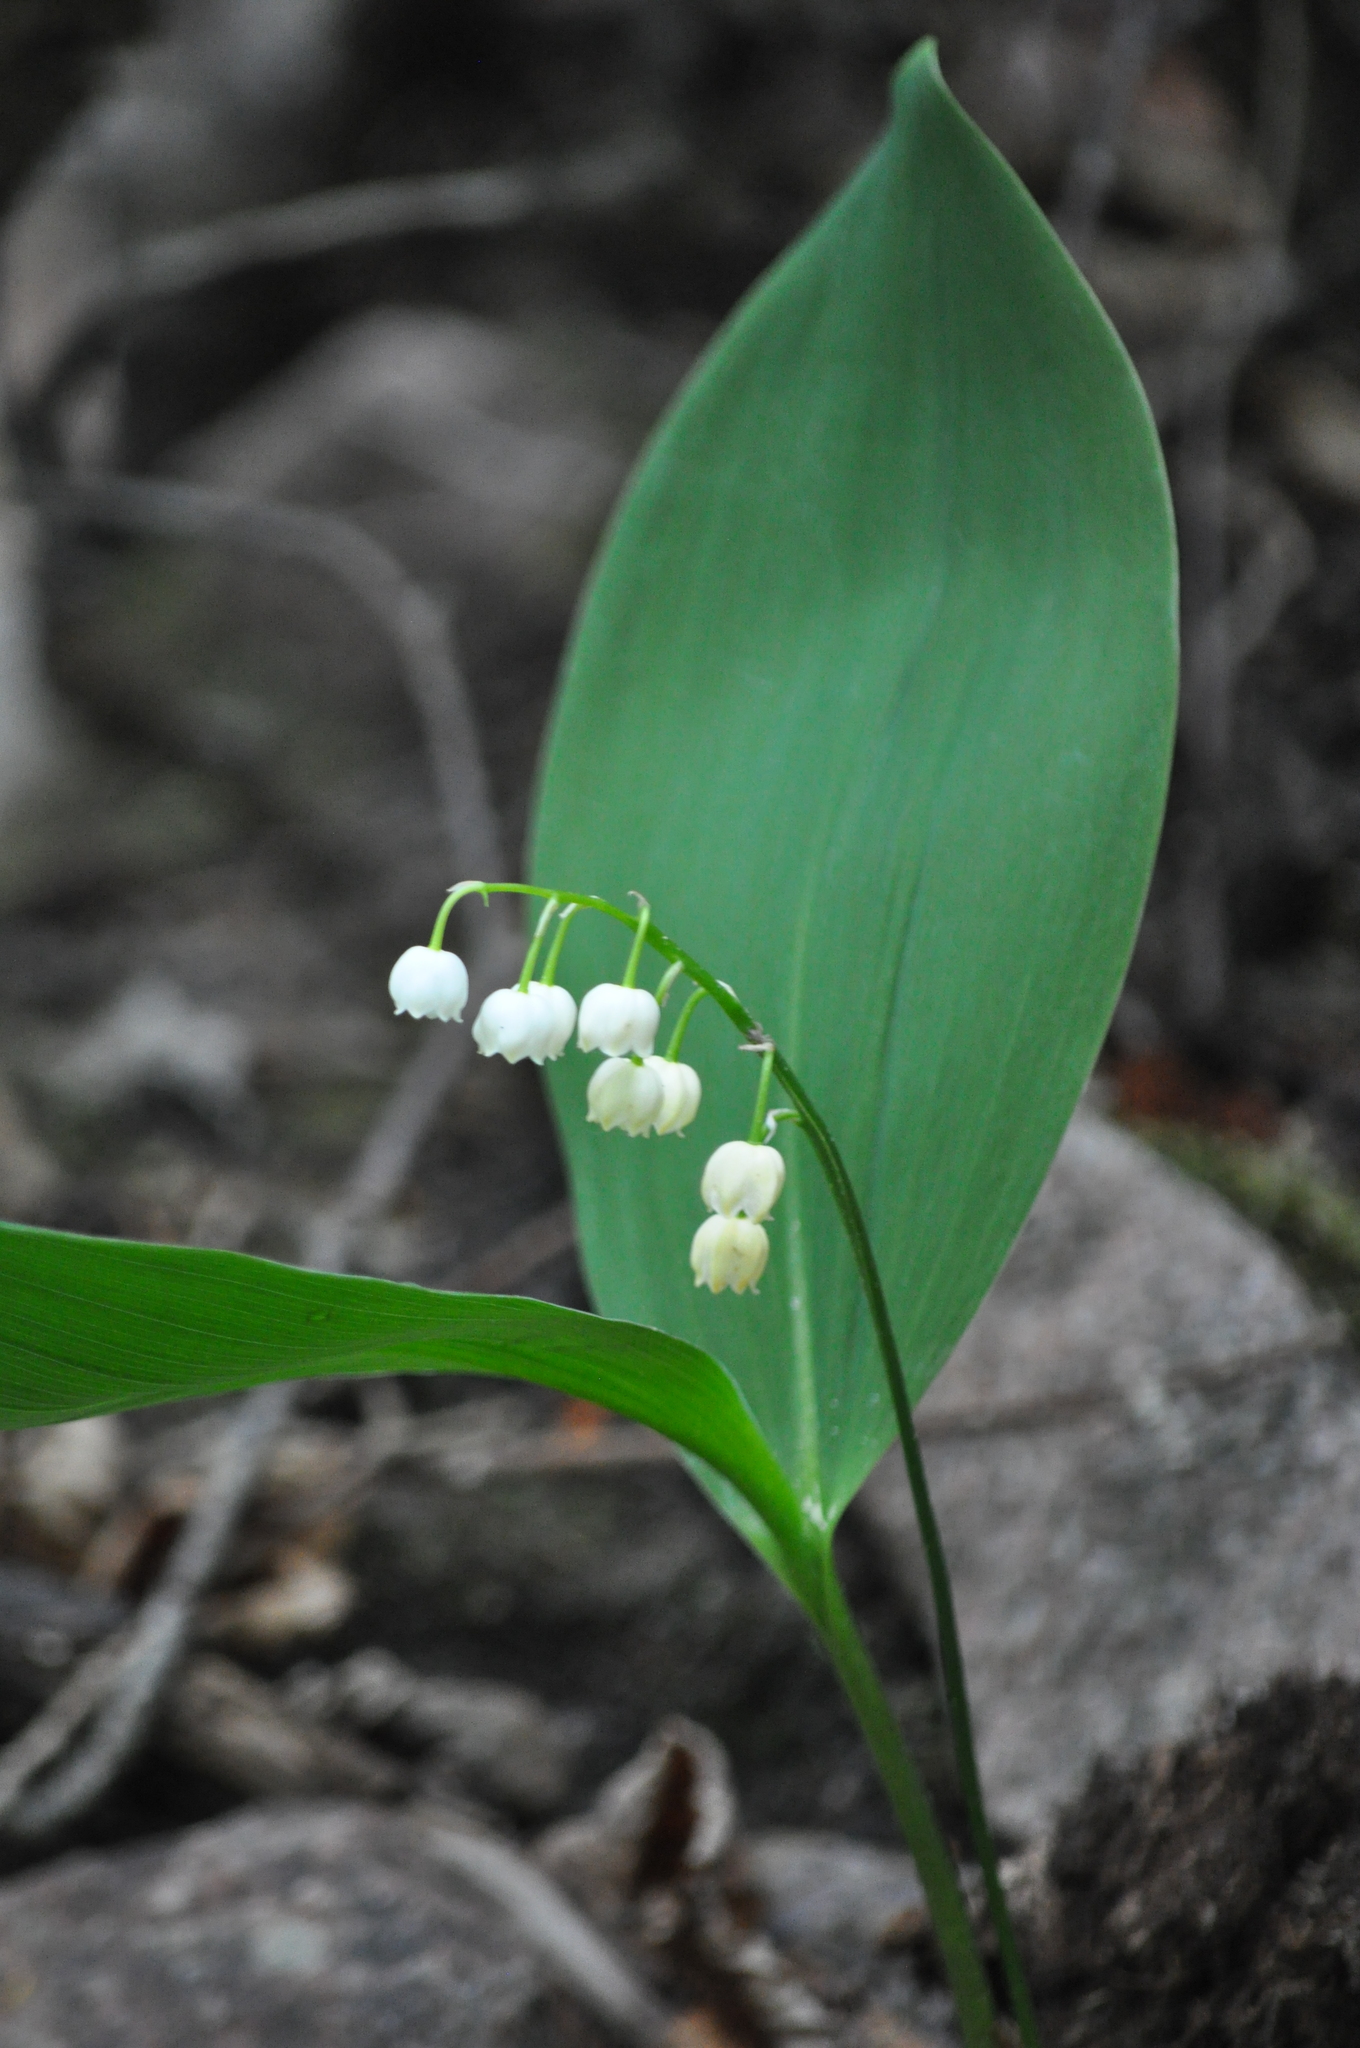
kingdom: Plantae
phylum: Tracheophyta
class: Liliopsida
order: Asparagales
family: Asparagaceae
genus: Convallaria
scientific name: Convallaria majalis
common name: Lily-of-the-valley
